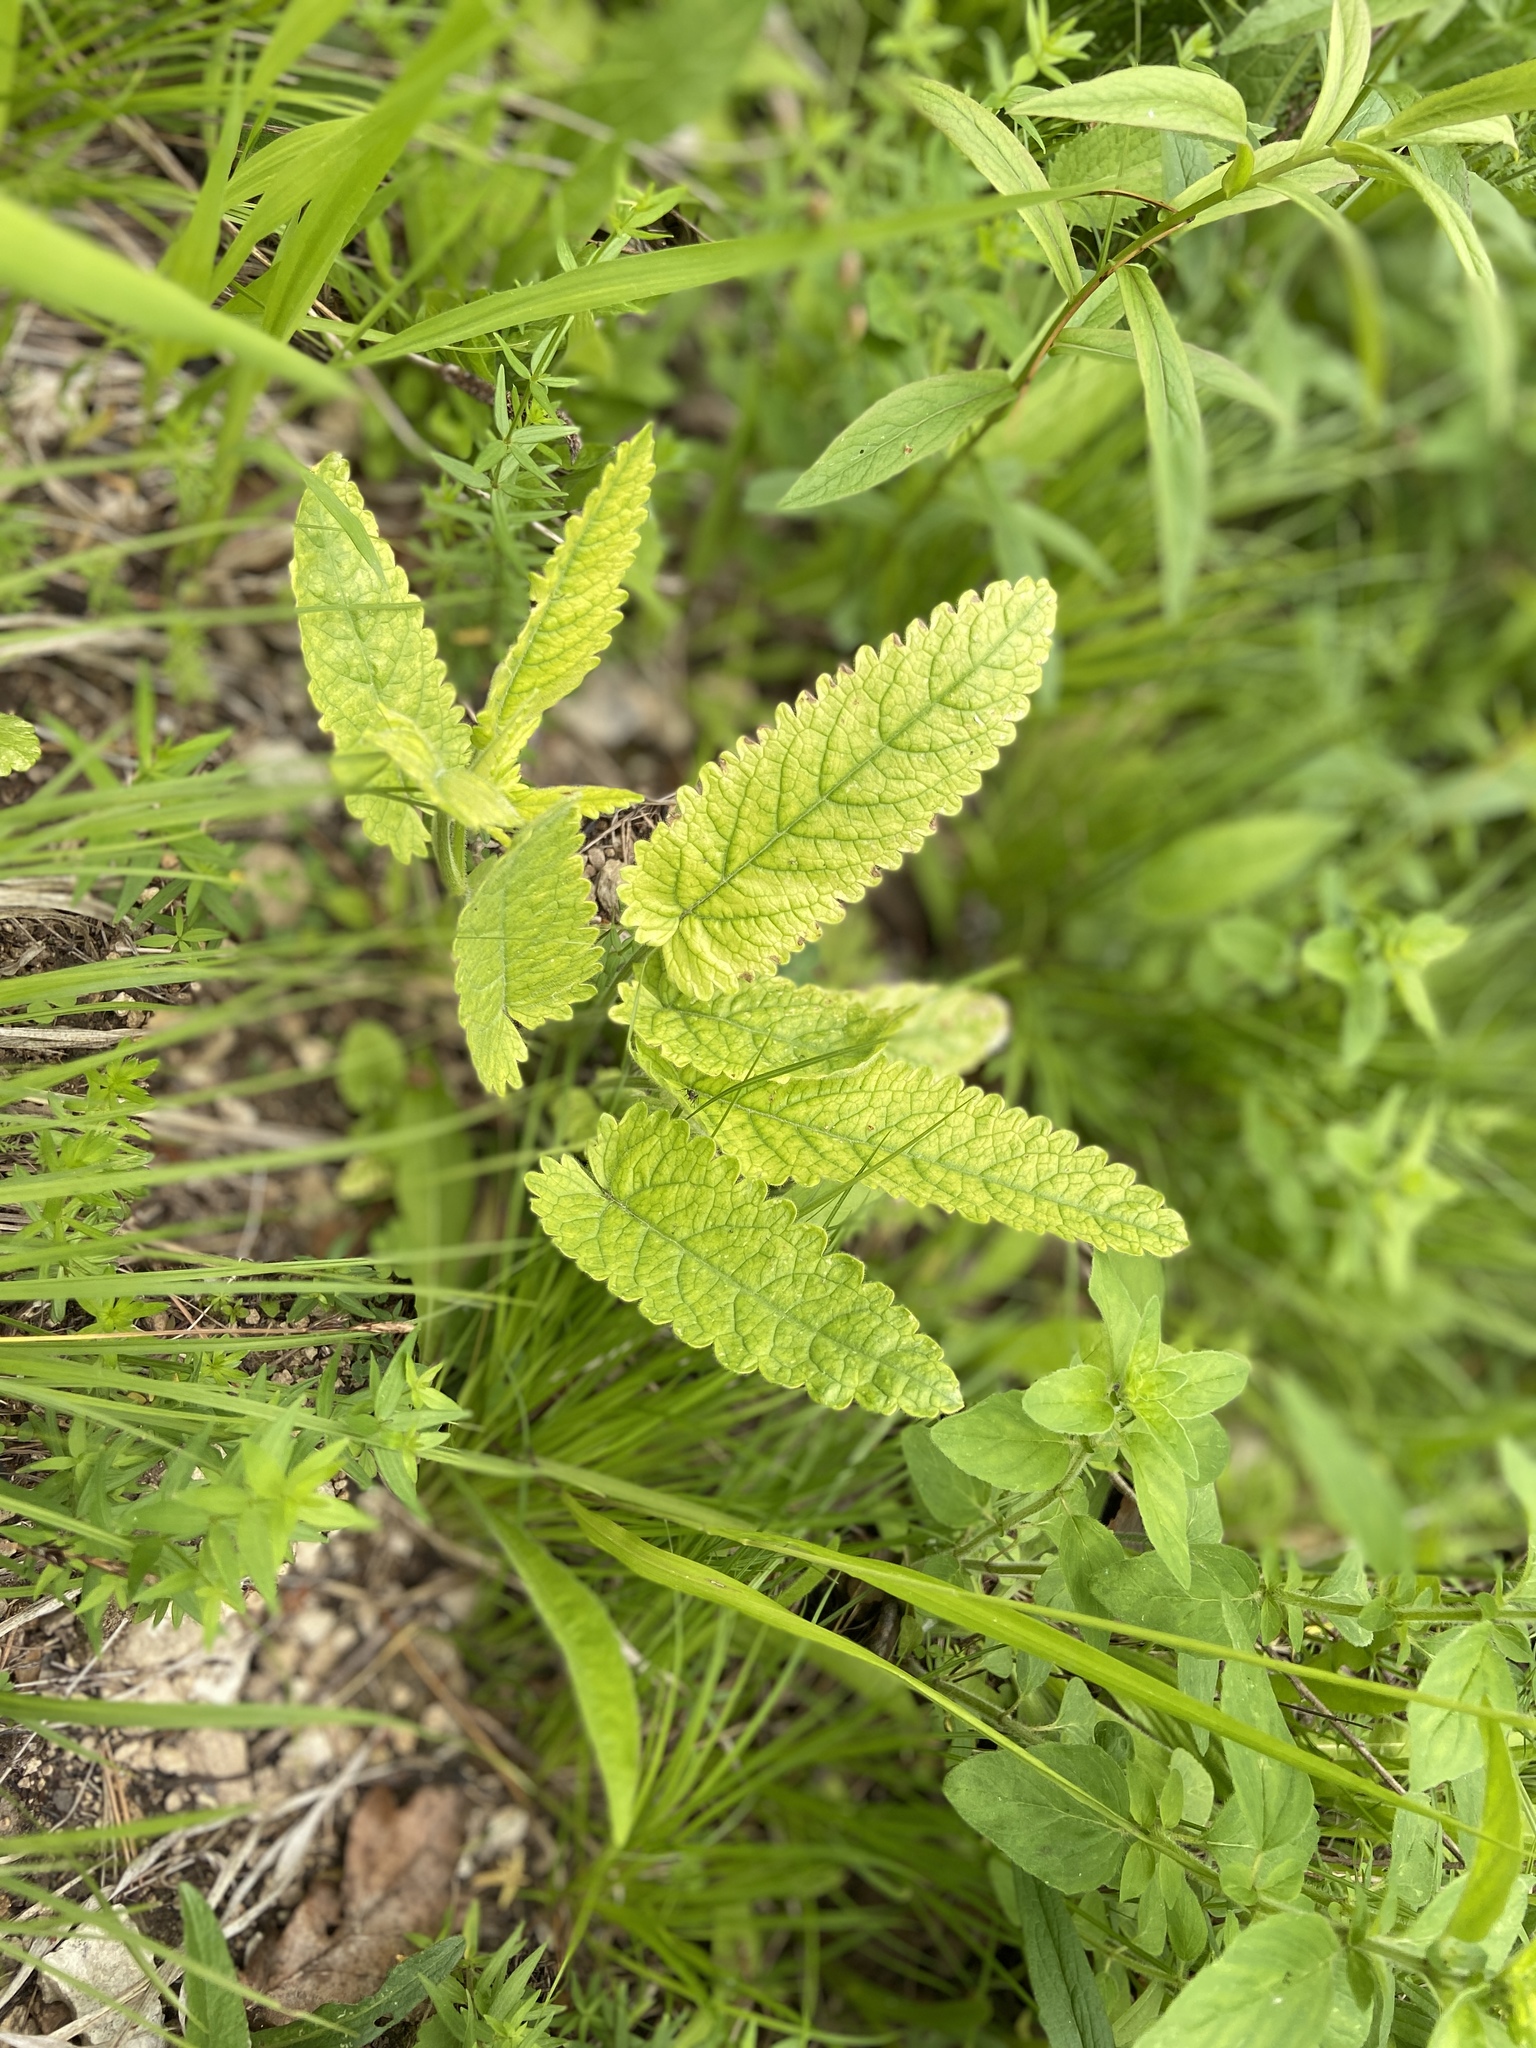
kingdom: Plantae
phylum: Tracheophyta
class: Magnoliopsida
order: Lamiales
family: Lamiaceae
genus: Betonica
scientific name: Betonica officinalis
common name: Bishop's-wort
